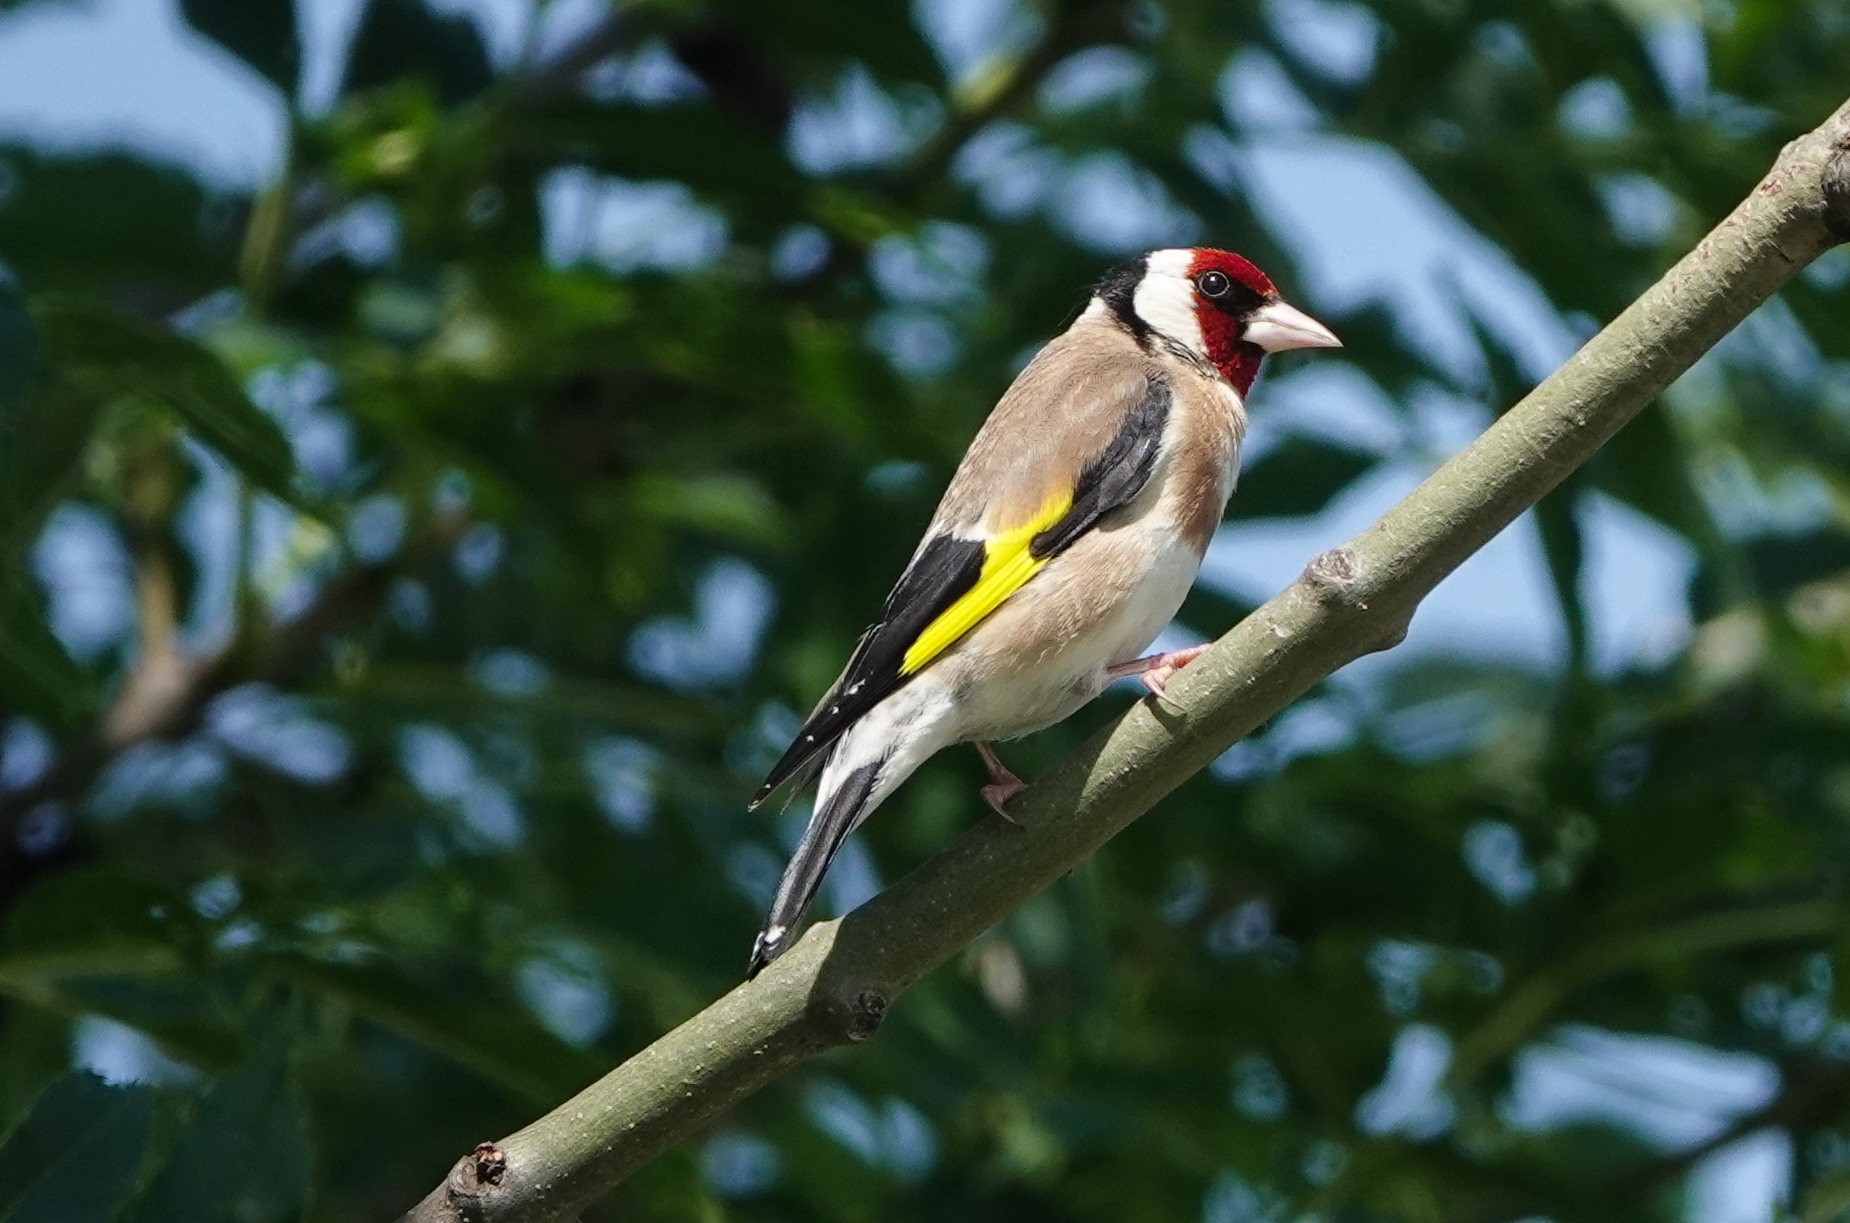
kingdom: Animalia
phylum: Chordata
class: Aves
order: Passeriformes
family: Fringillidae
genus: Carduelis
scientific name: Carduelis carduelis
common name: European goldfinch
